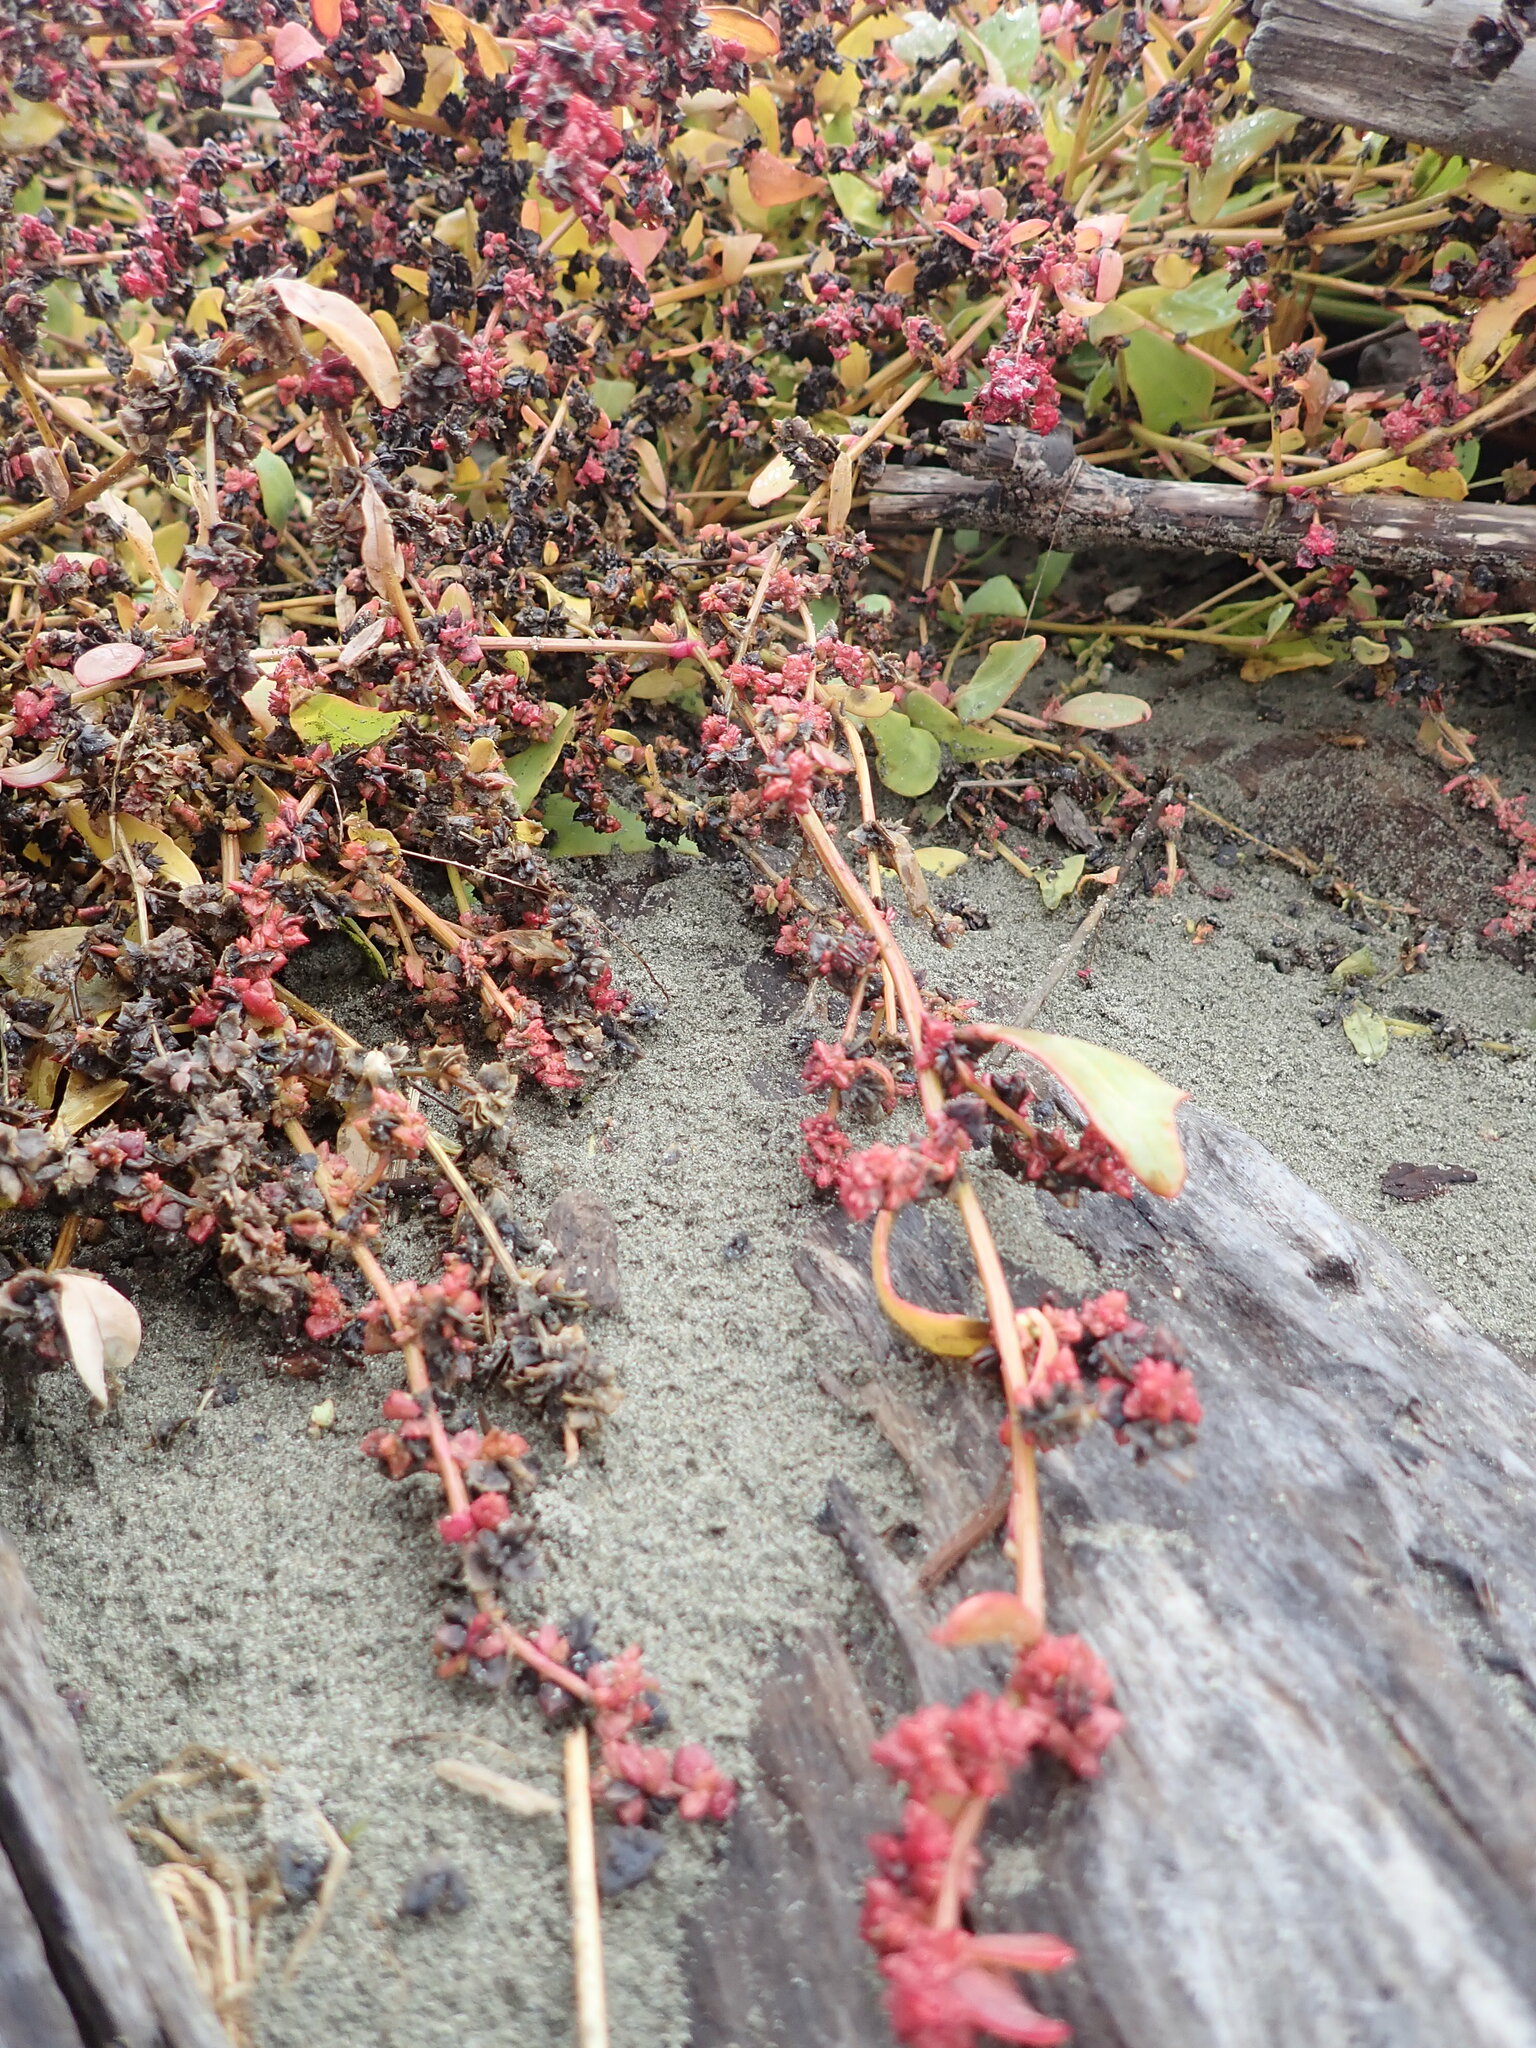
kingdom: Plantae
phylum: Tracheophyta
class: Magnoliopsida
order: Caryophyllales
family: Amaranthaceae
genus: Atriplex
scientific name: Atriplex prostrata
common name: Spear-leaved orache
